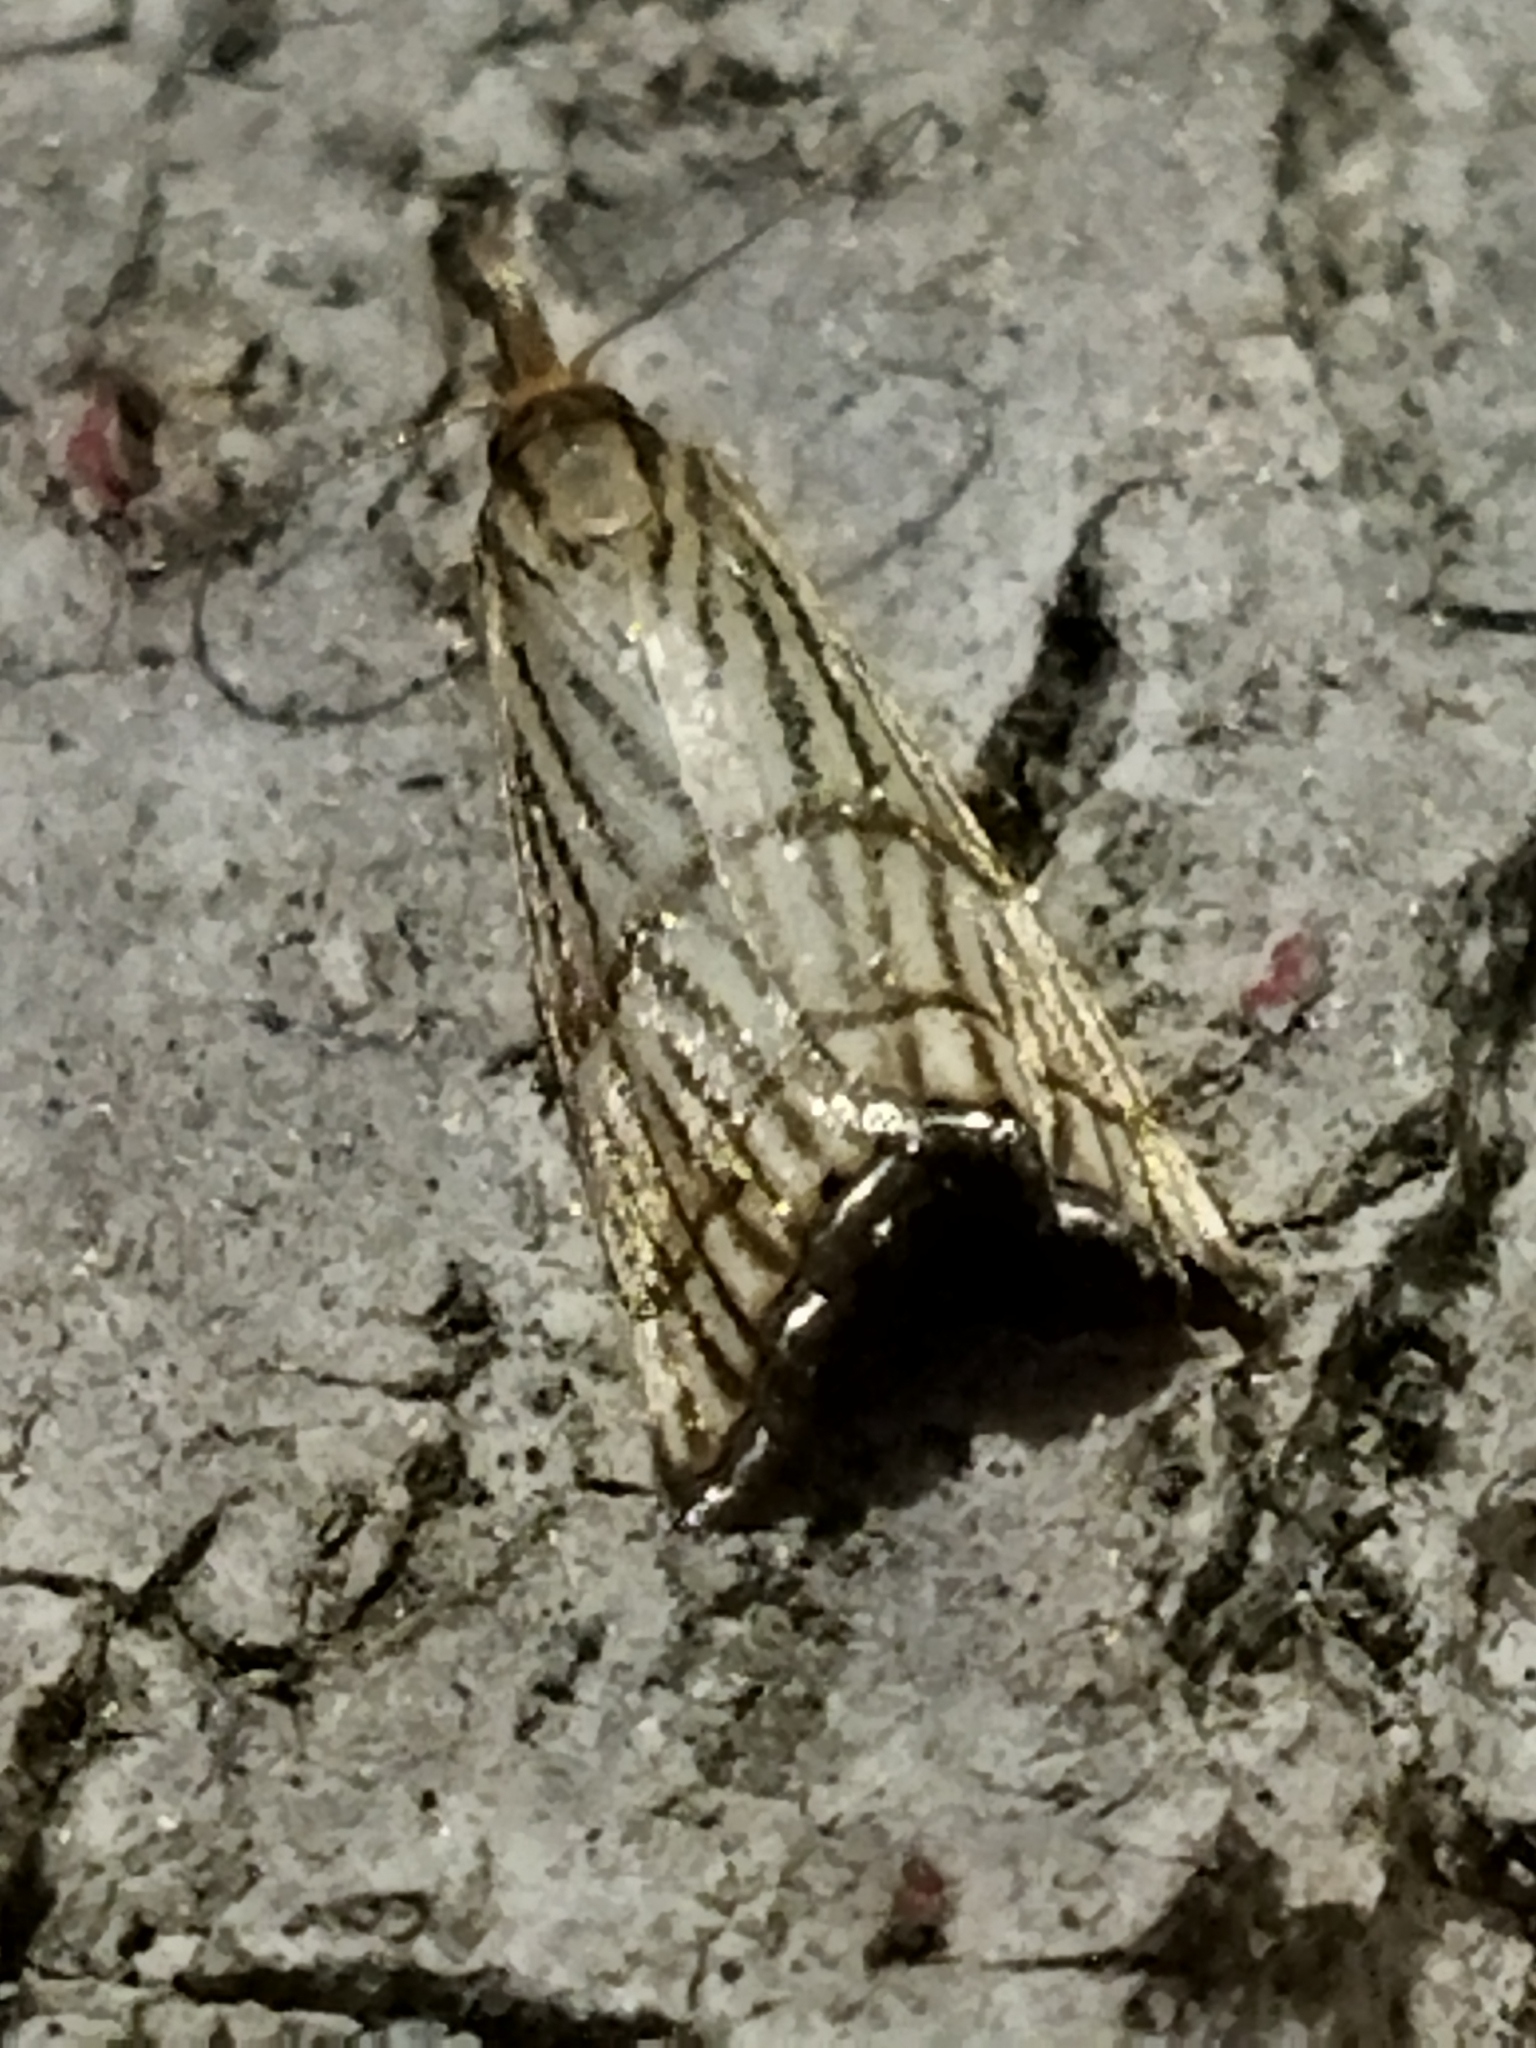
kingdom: Animalia
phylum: Arthropoda
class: Insecta
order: Lepidoptera
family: Crambidae
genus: Chrysocrambus
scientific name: Chrysocrambus linetella
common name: Orange-bar grass-veneer
